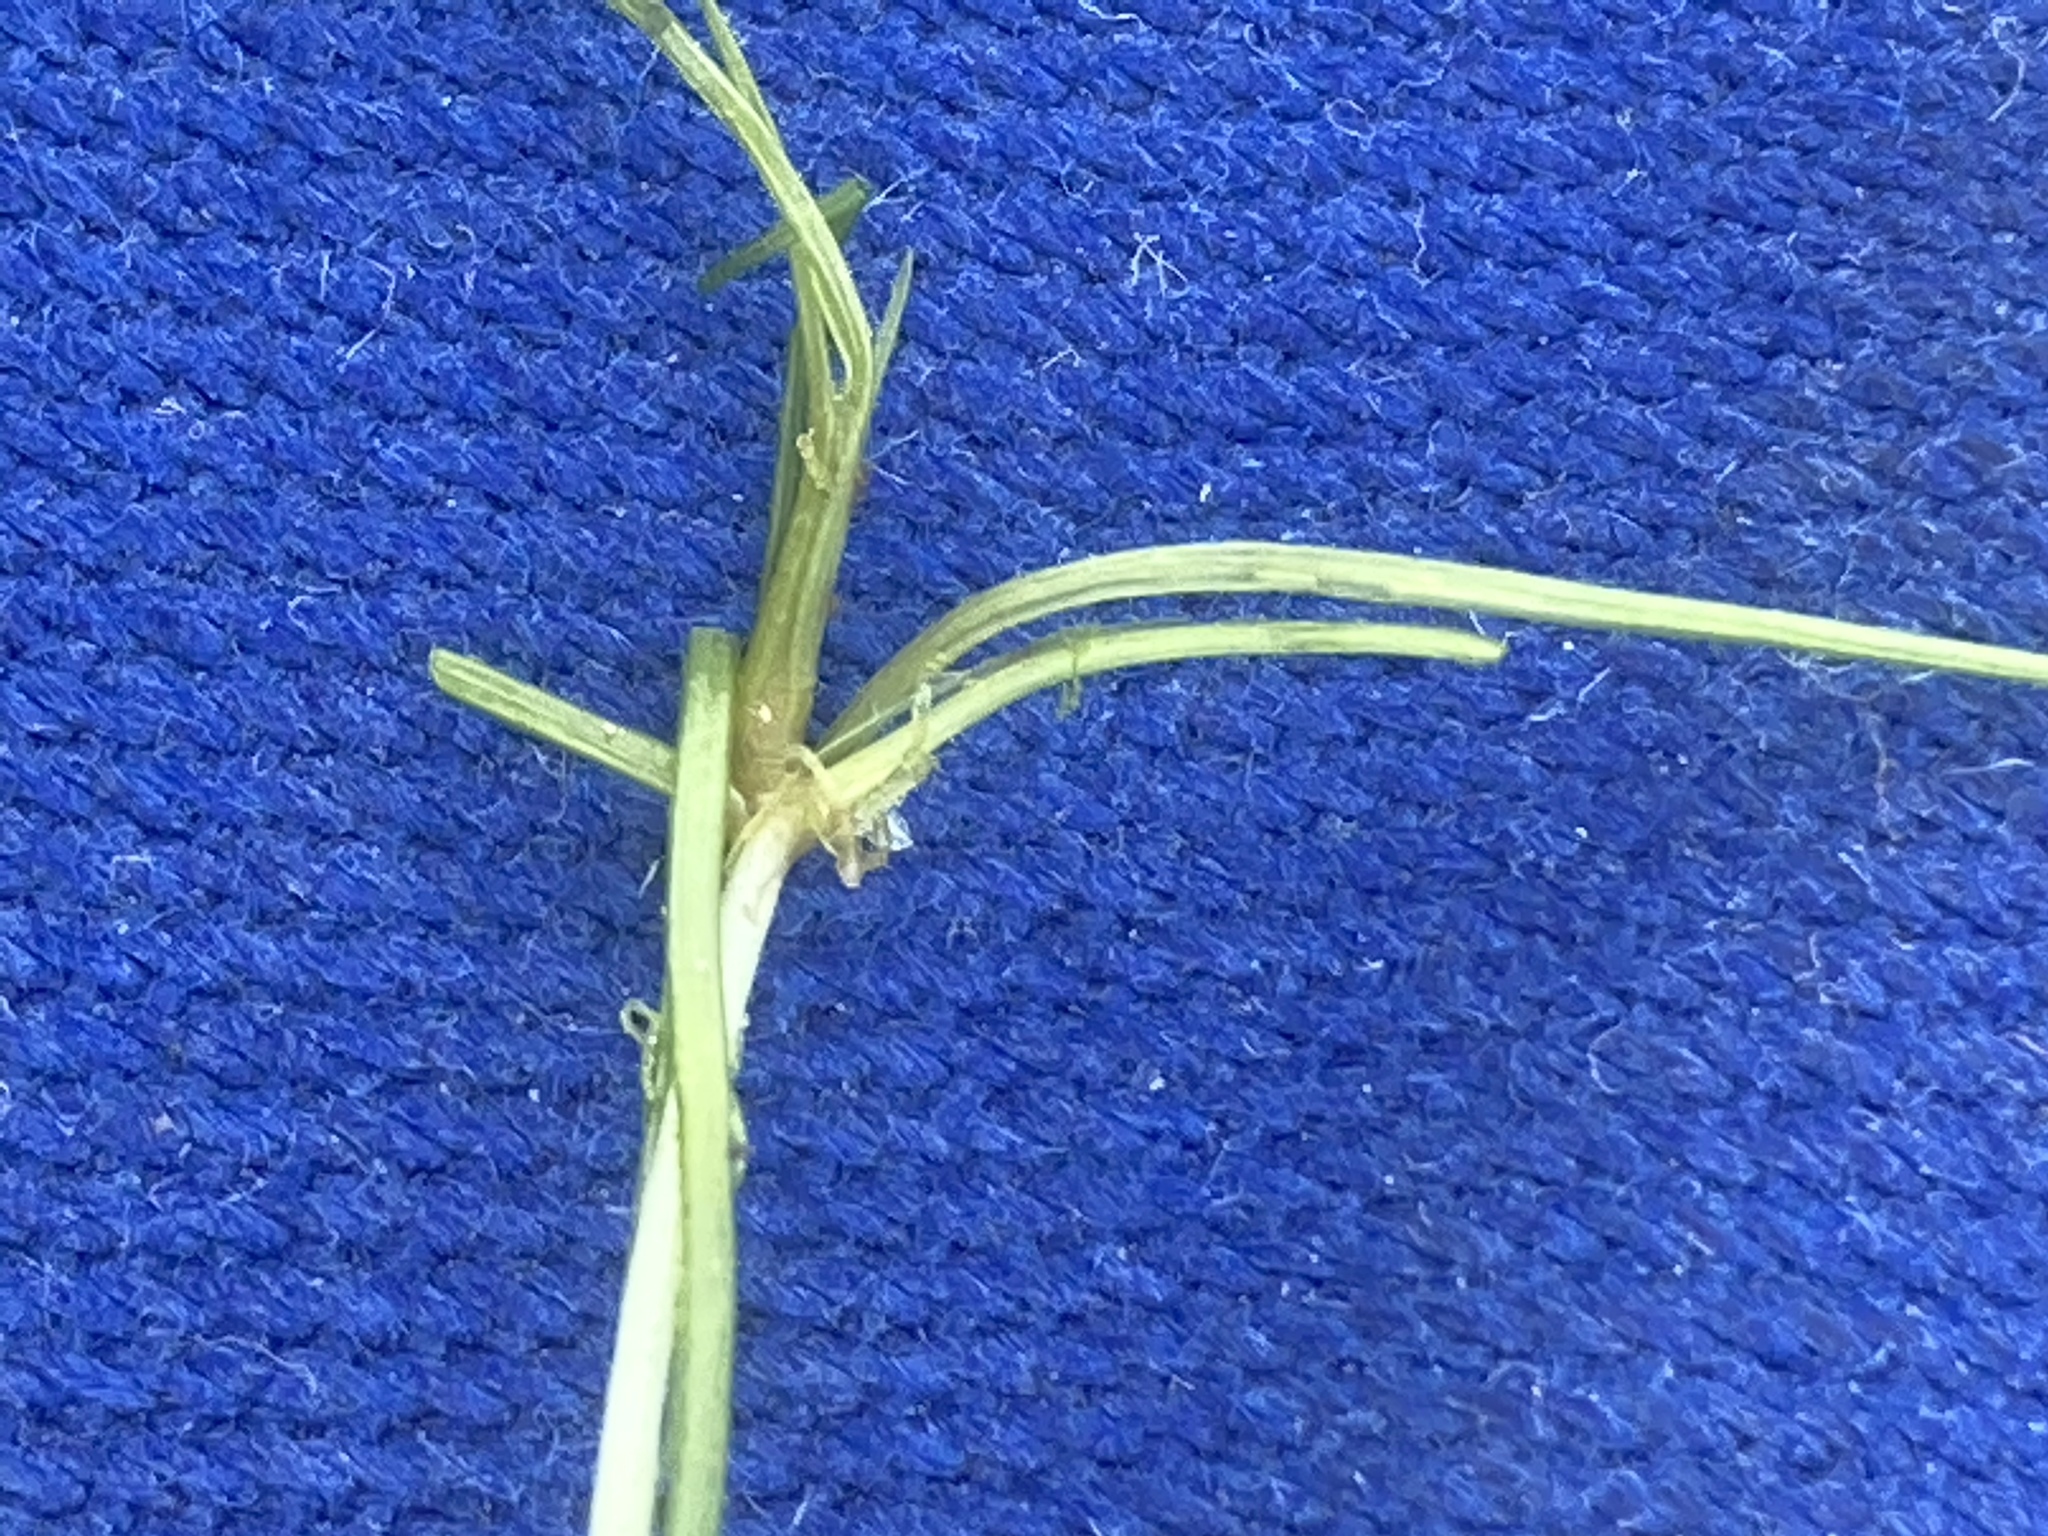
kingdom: Plantae
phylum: Tracheophyta
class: Liliopsida
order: Alismatales
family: Potamogetonaceae
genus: Zannichellia
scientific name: Zannichellia palustris
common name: Horned pondweed
